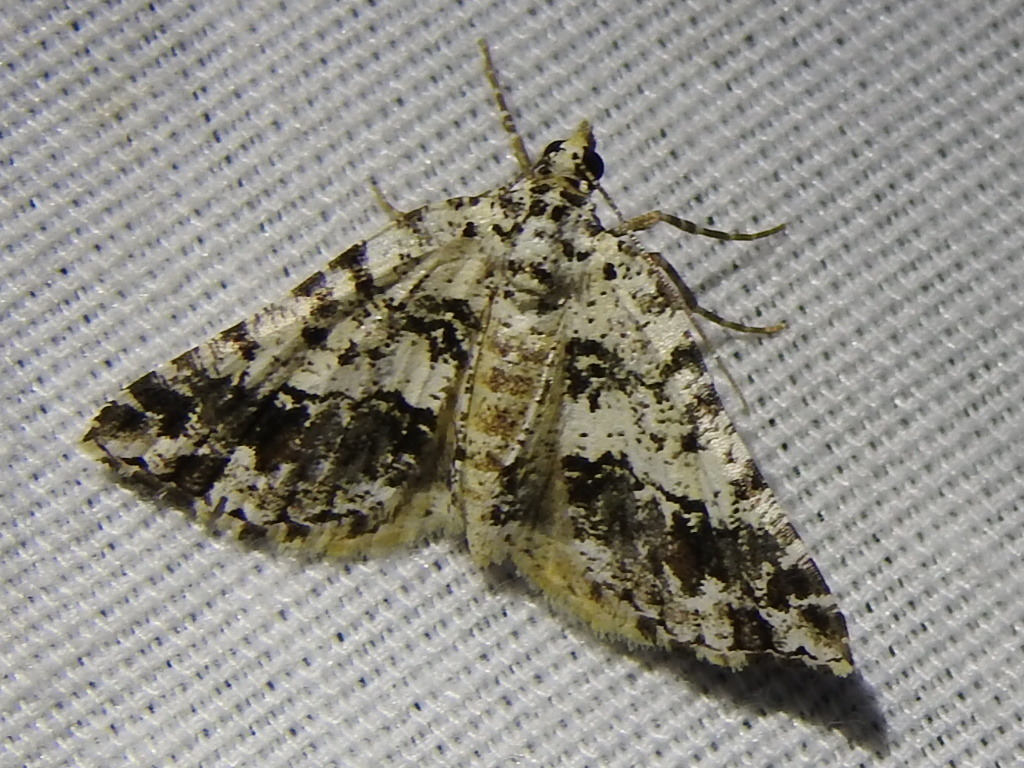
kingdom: Animalia
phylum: Arthropoda
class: Insecta
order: Lepidoptera
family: Geometridae
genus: Macaria
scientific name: Macaria graphidaria
